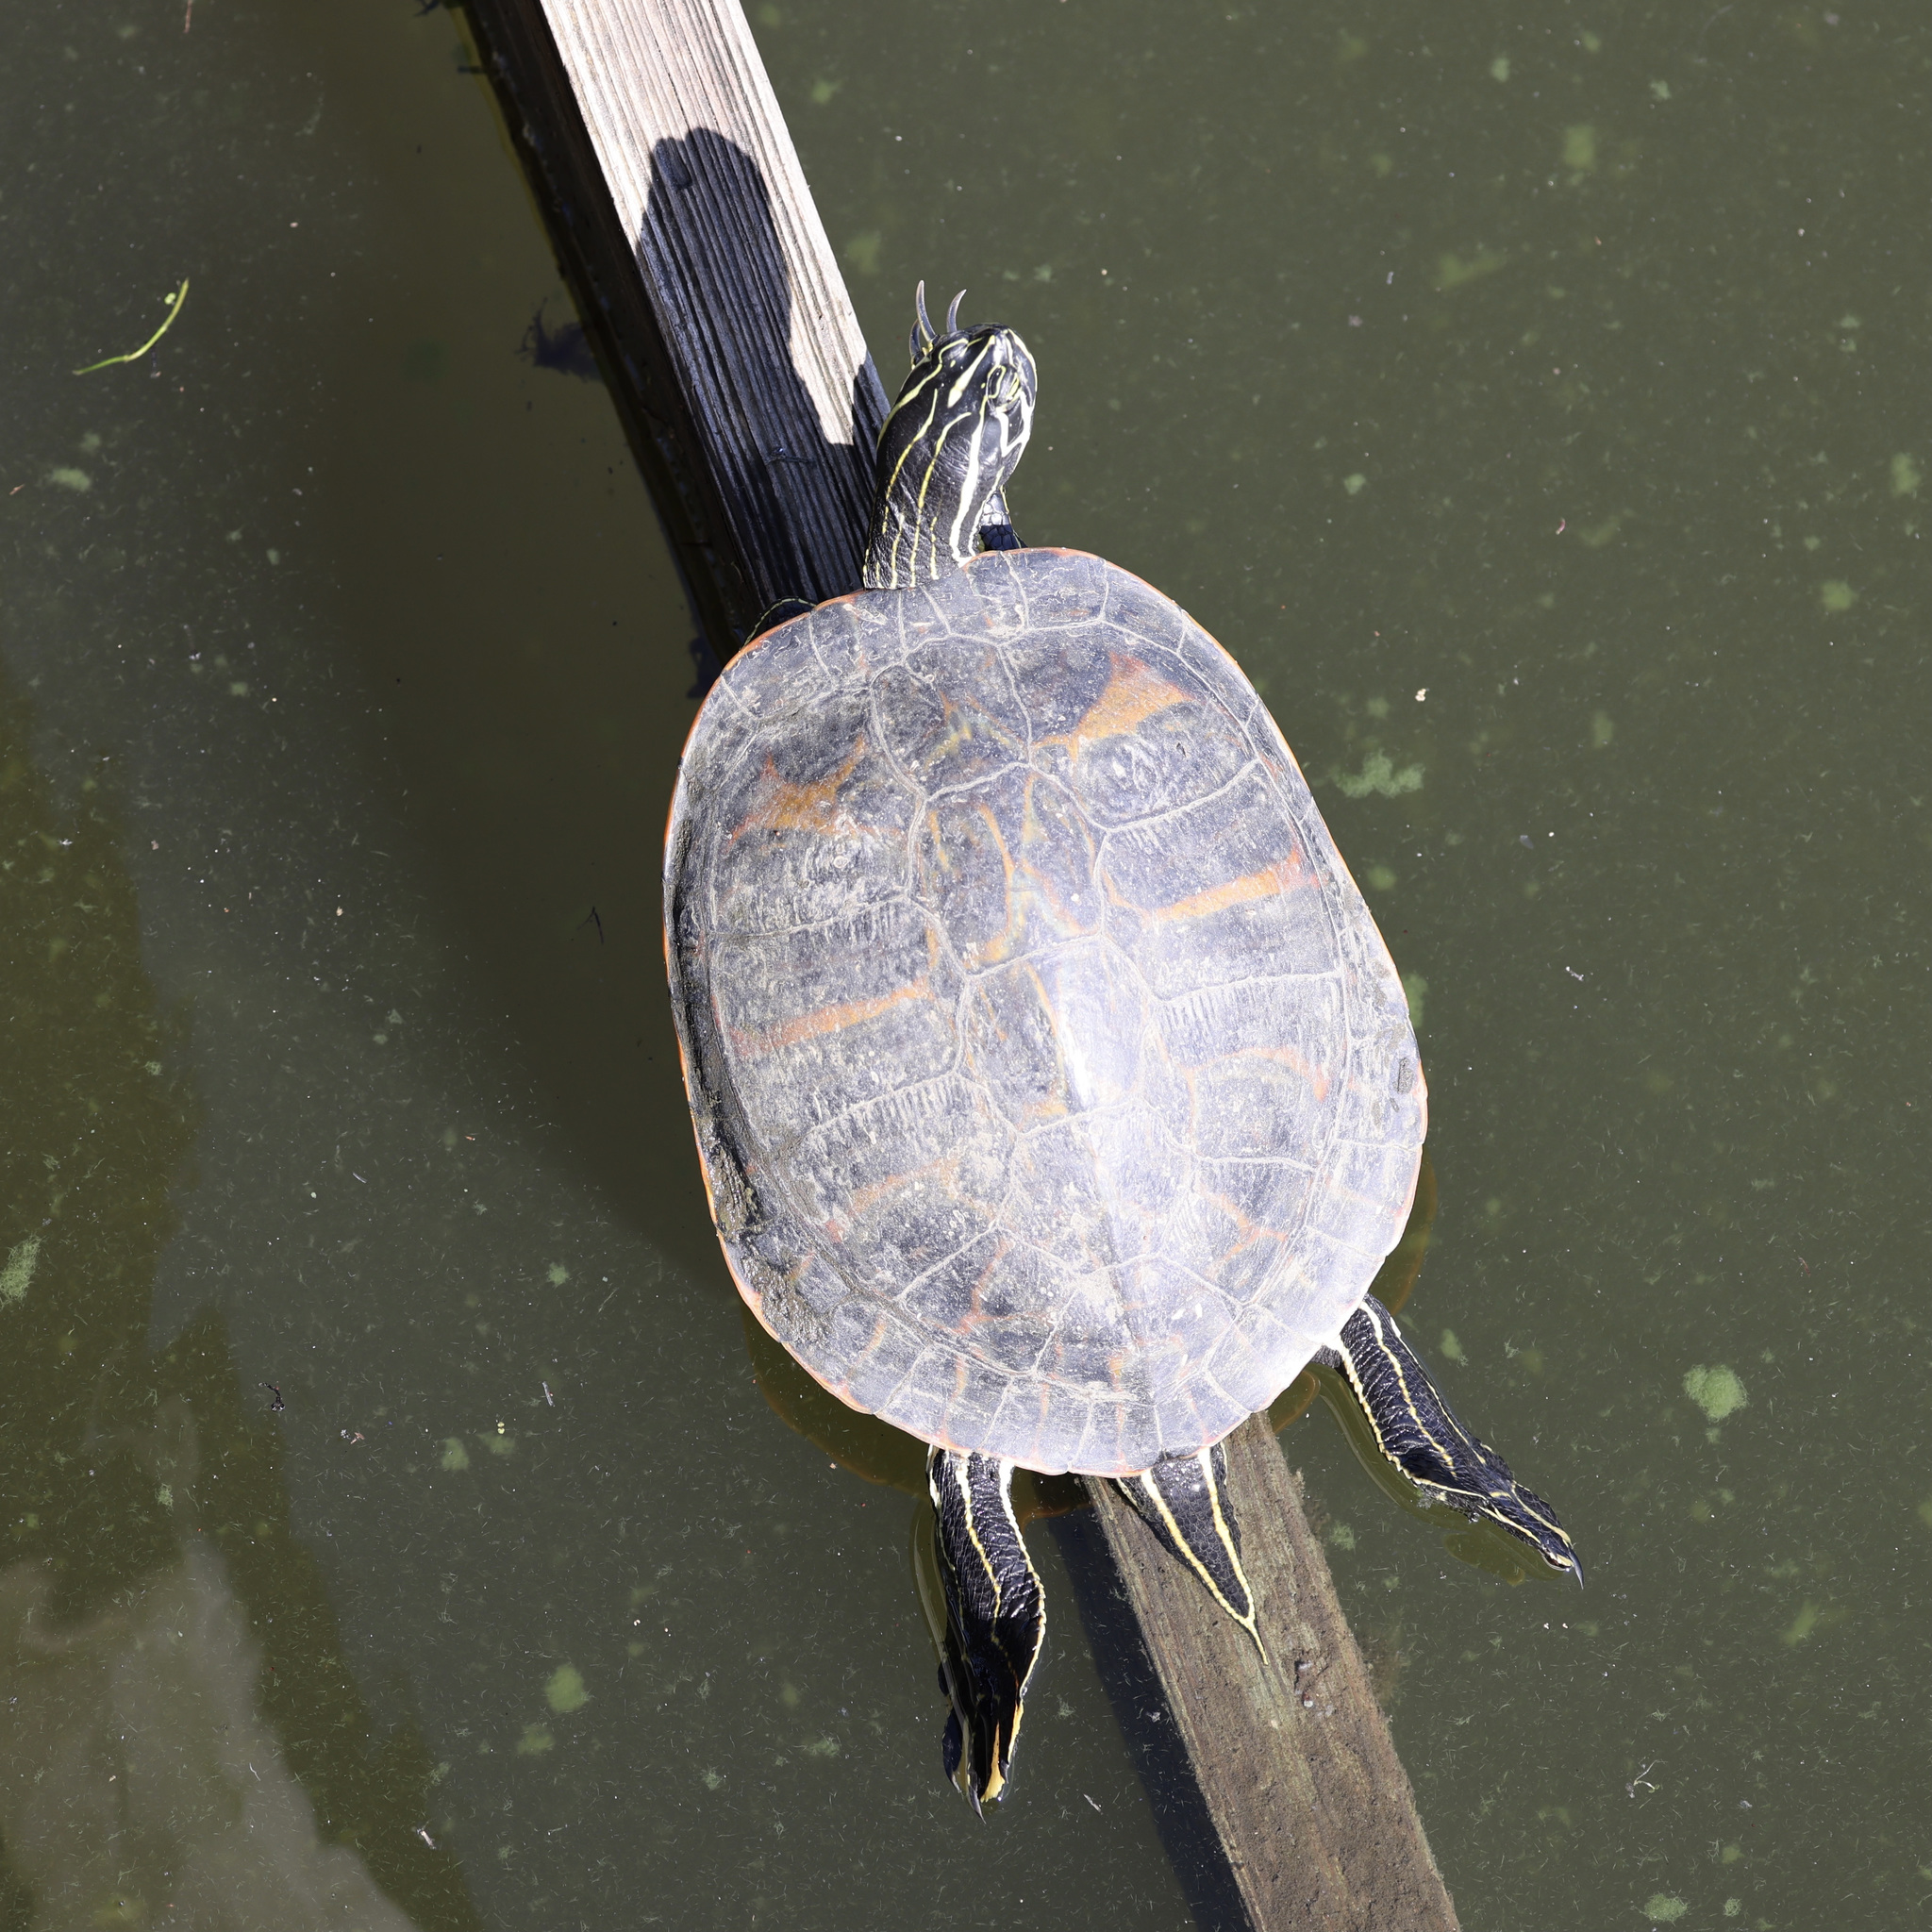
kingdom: Animalia
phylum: Chordata
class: Testudines
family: Emydidae
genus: Pseudemys
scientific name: Pseudemys nelsoni
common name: Florida red-bellied turtle
